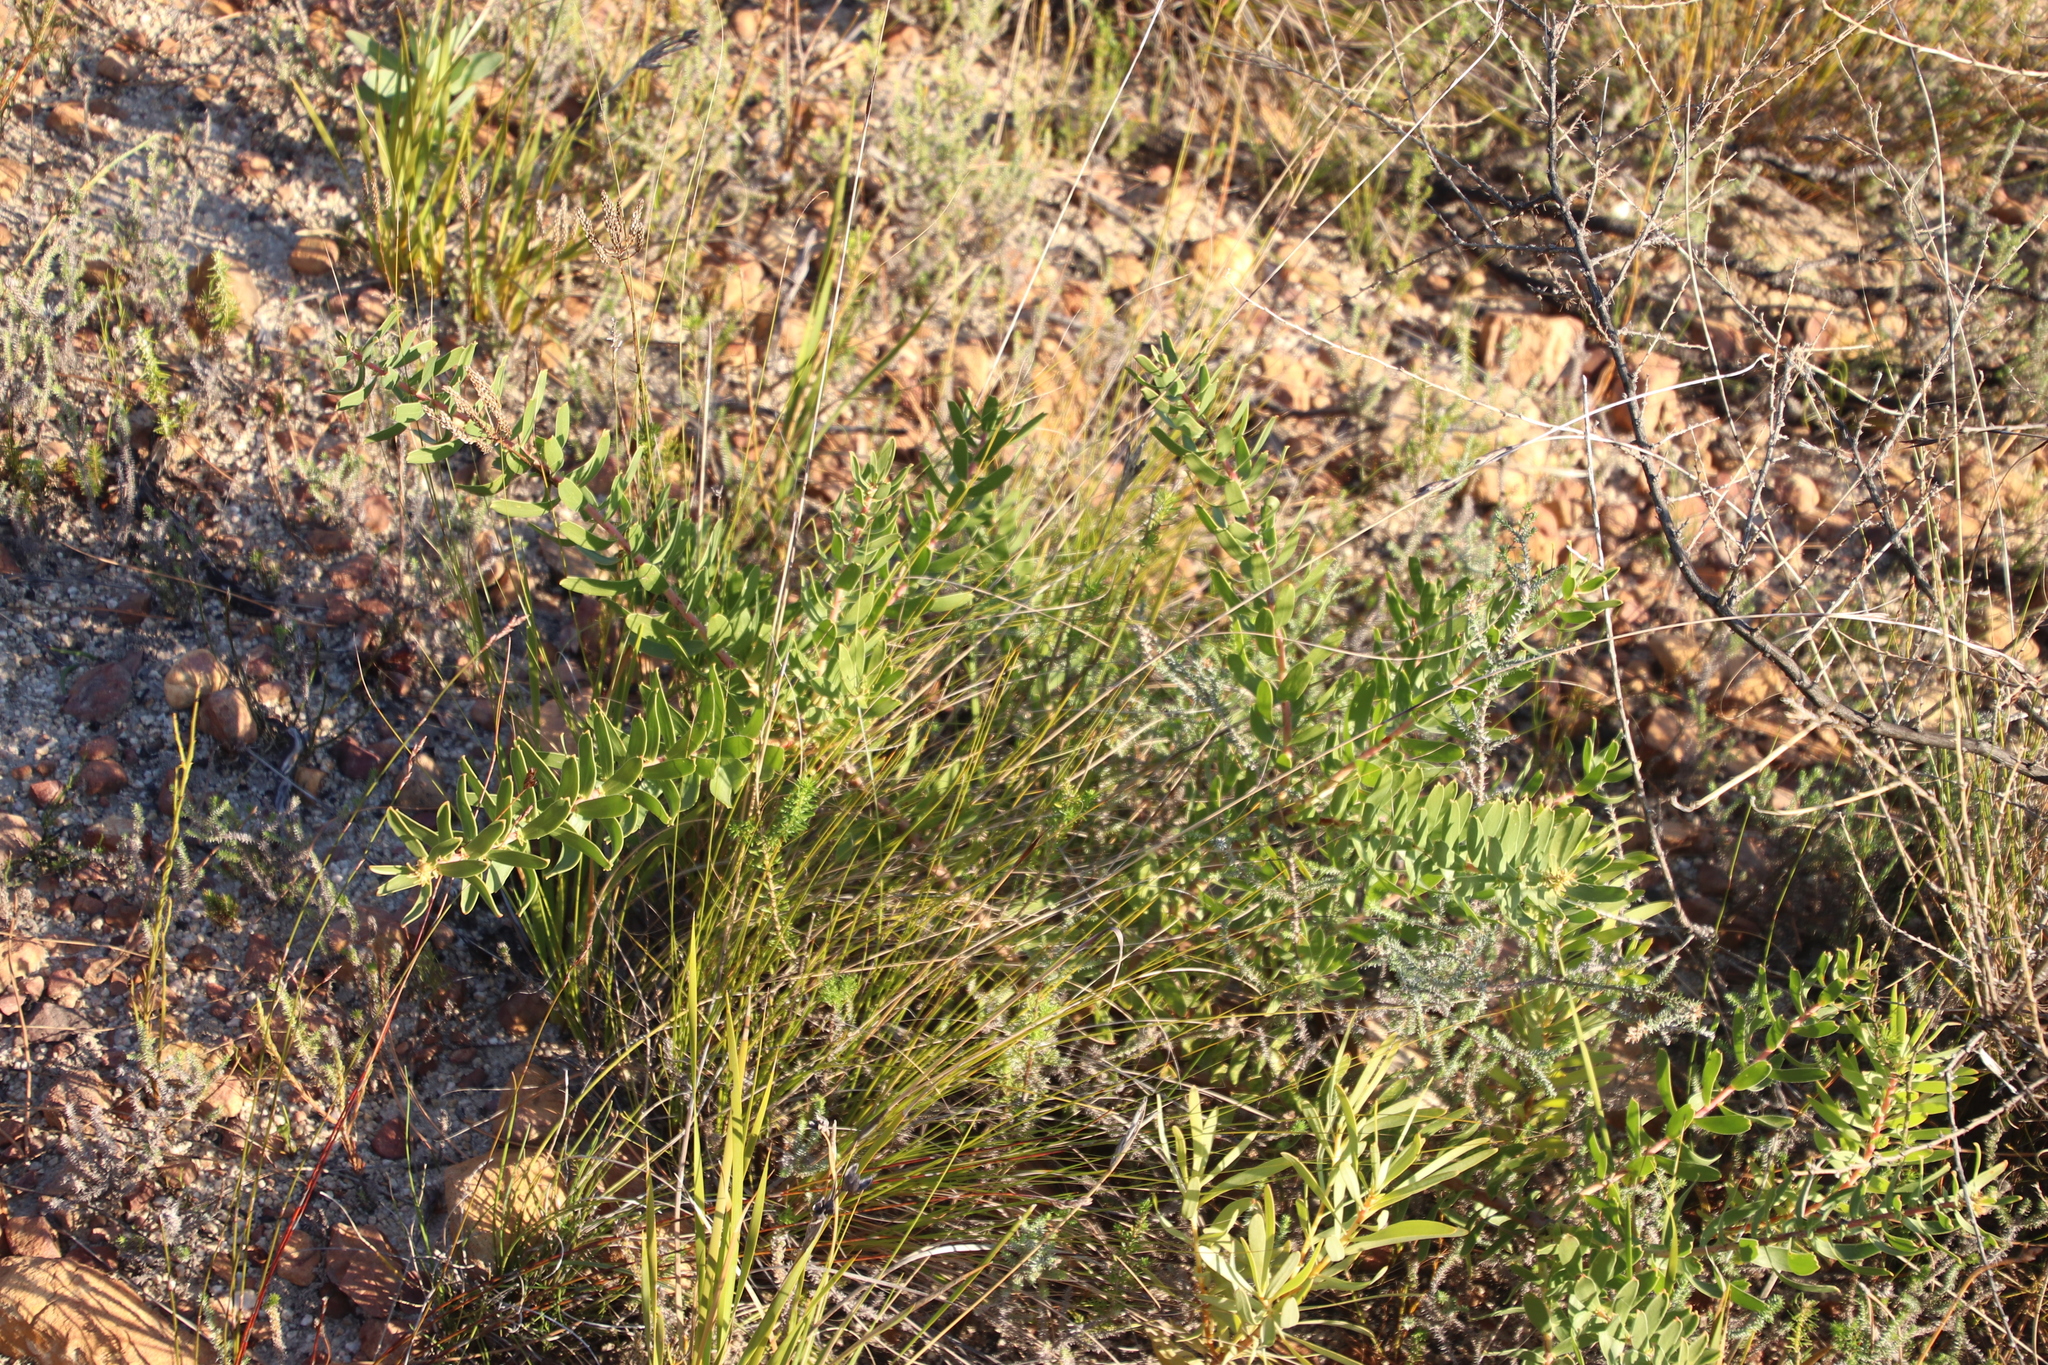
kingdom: Plantae
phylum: Tracheophyta
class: Magnoliopsida
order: Proteales
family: Proteaceae
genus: Leucospermum
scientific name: Leucospermum tottum
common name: Ribbon pincushion
